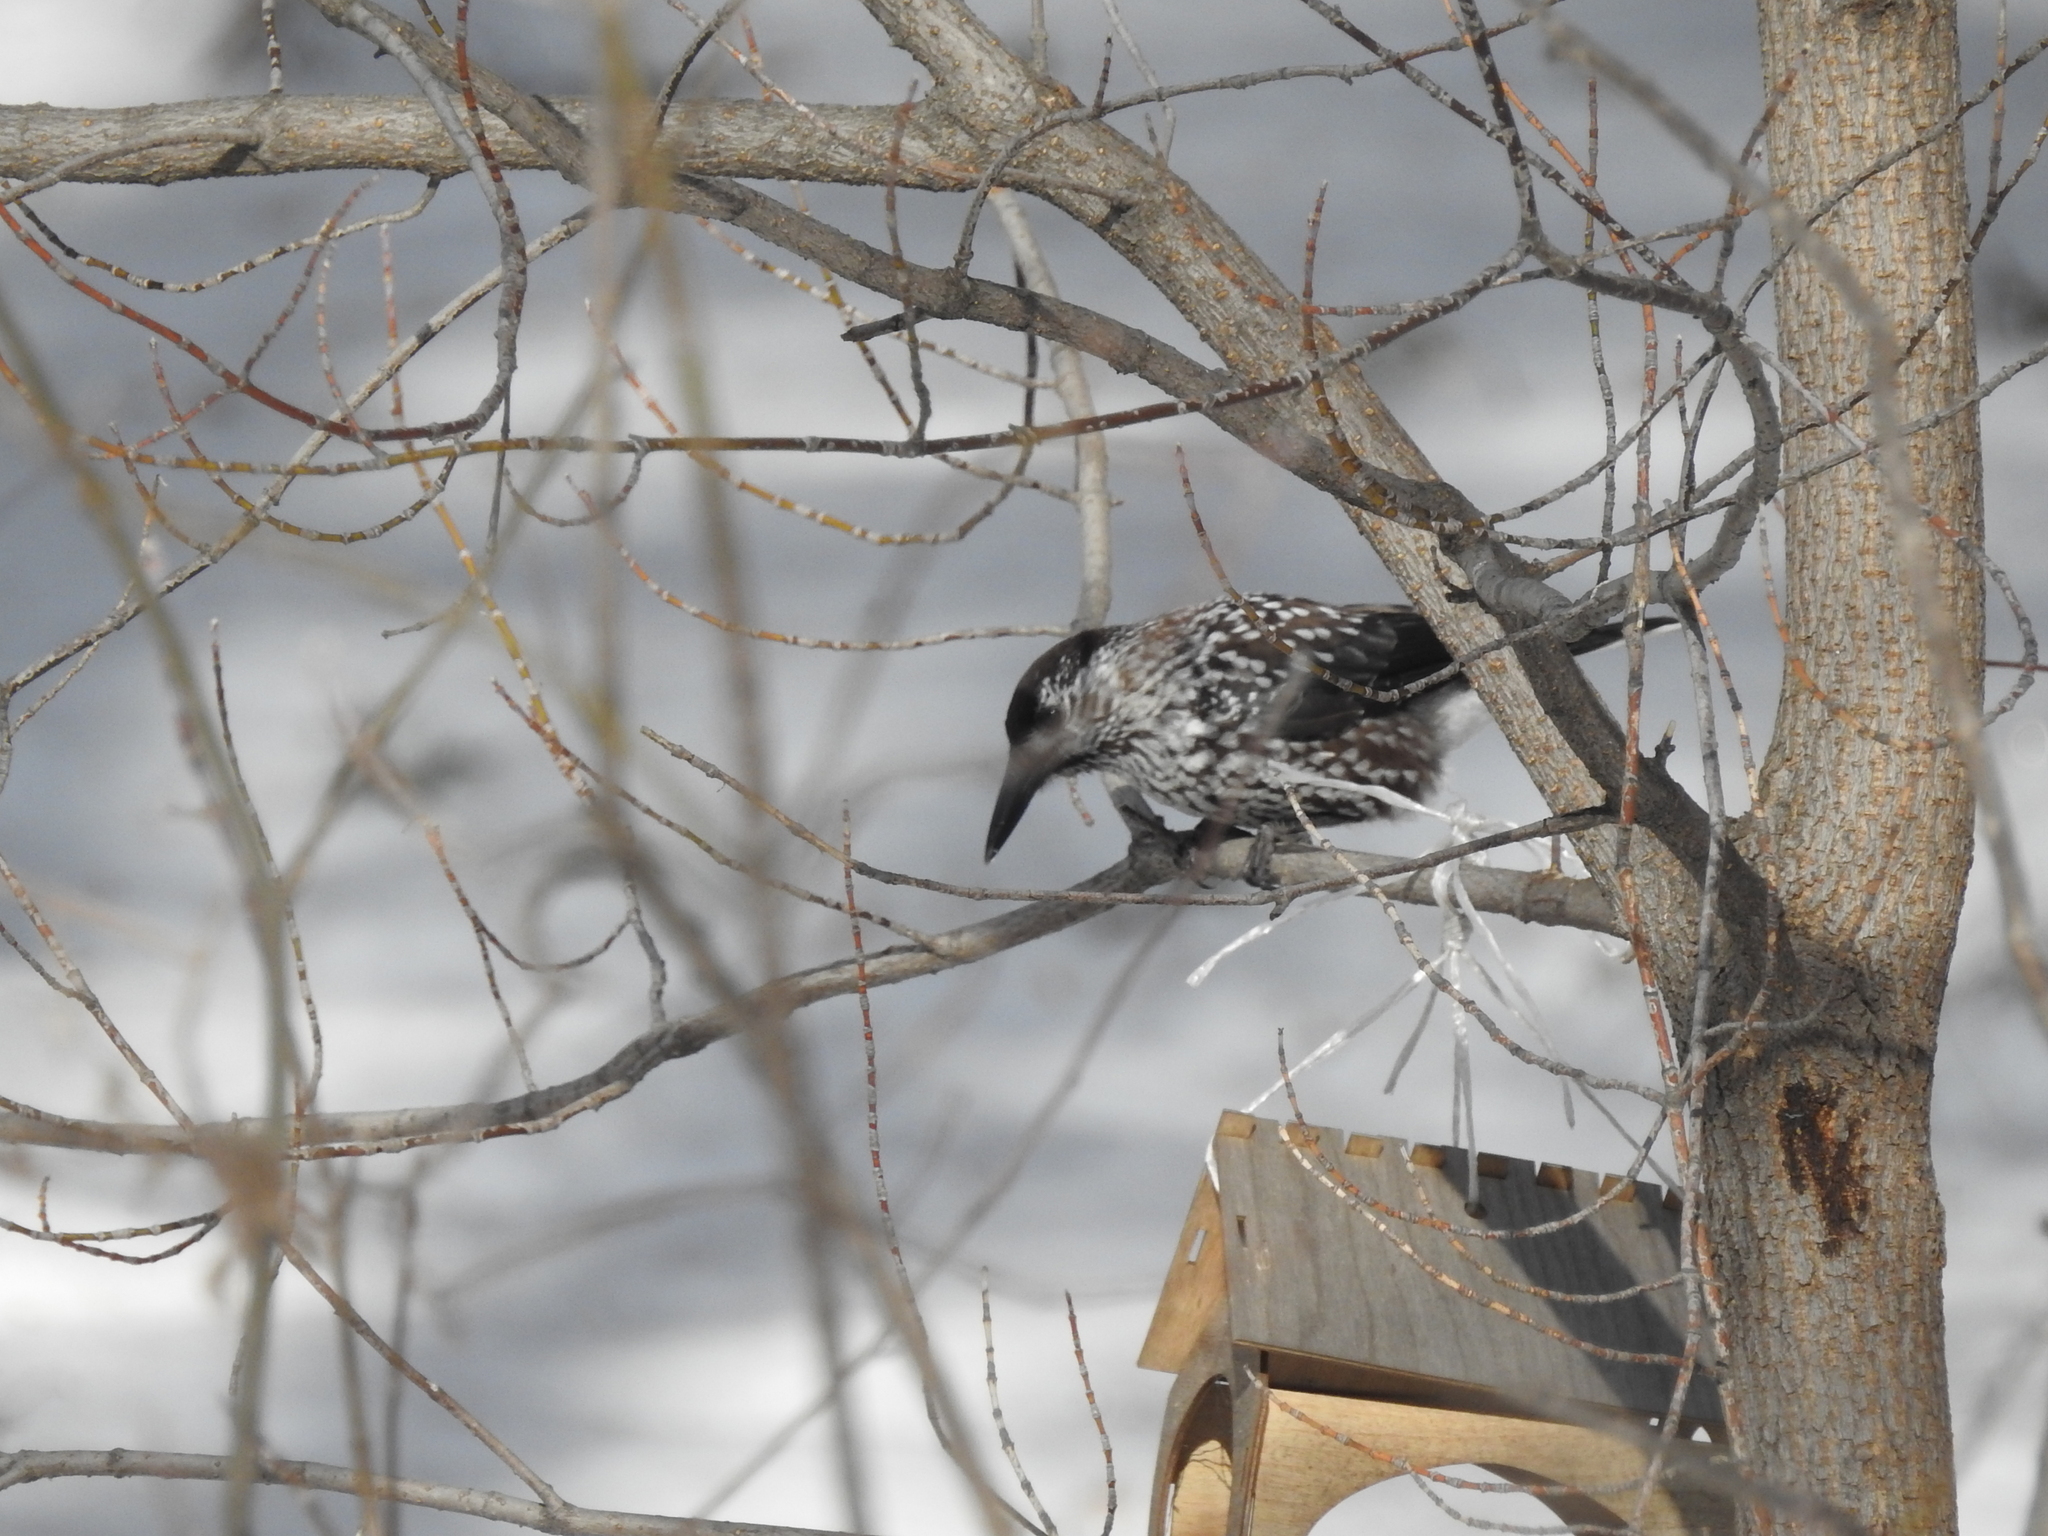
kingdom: Animalia
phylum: Chordata
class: Aves
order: Passeriformes
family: Corvidae
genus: Nucifraga
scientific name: Nucifraga caryocatactes
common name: Spotted nutcracker
